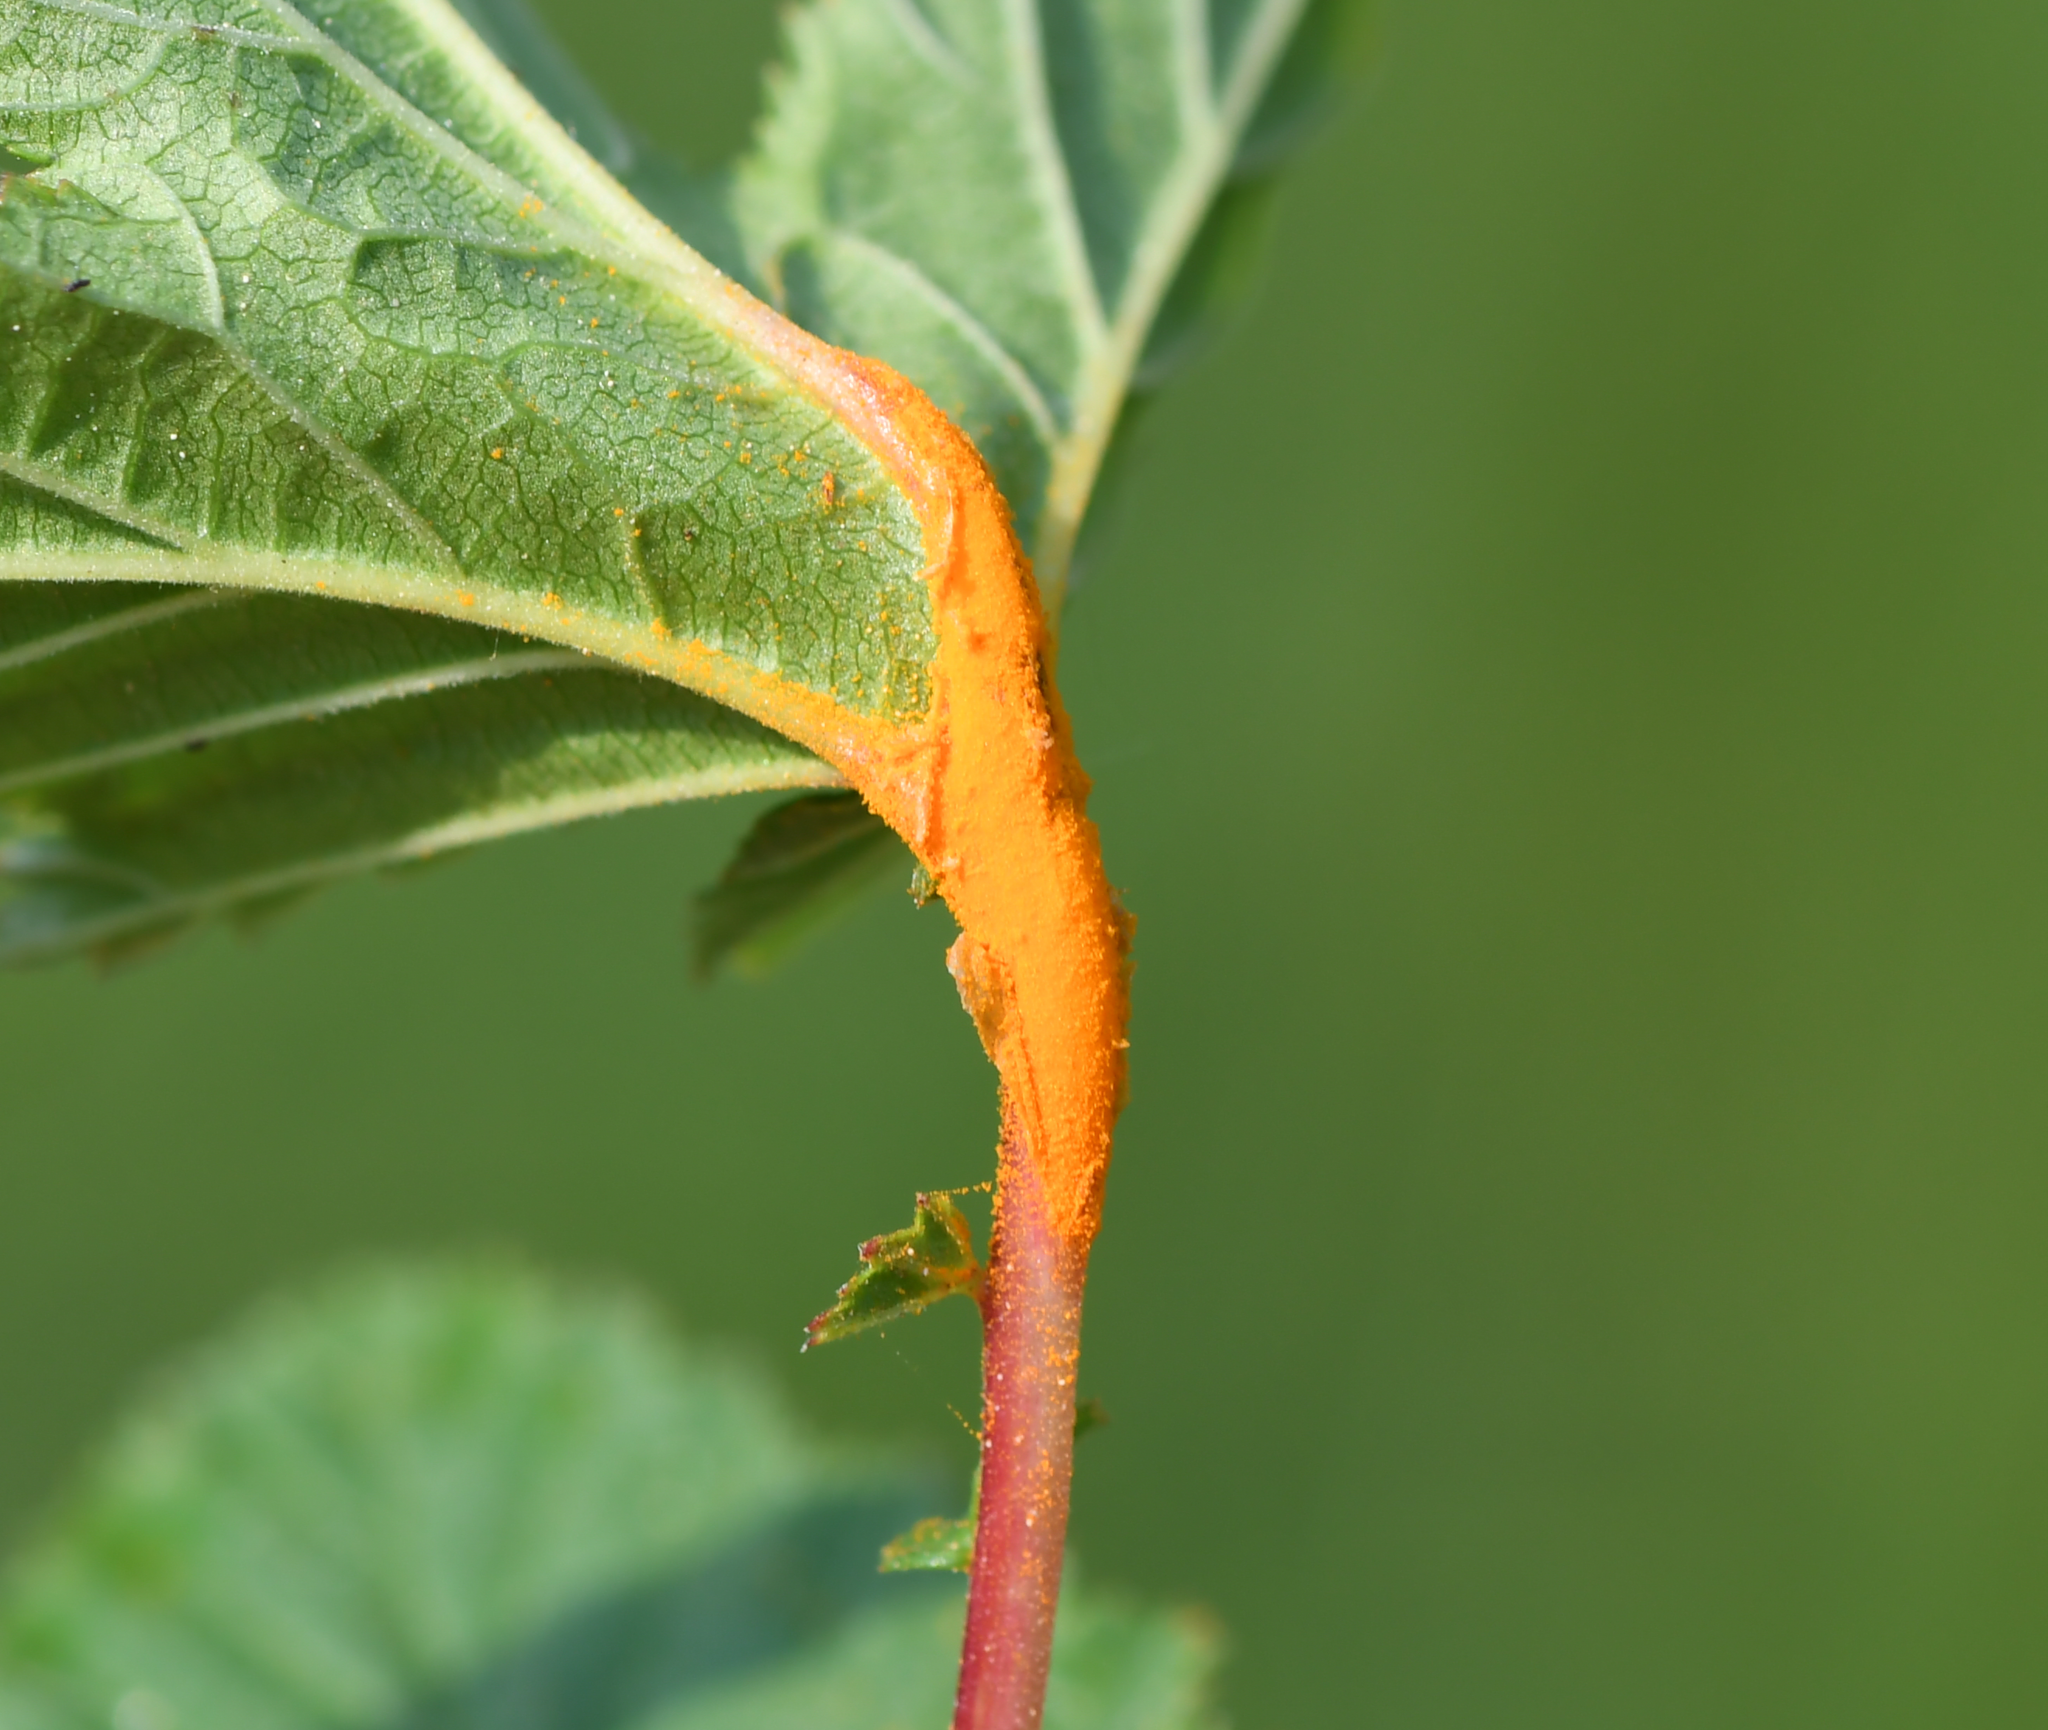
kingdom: Fungi
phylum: Basidiomycota
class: Pucciniomycetes
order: Pucciniales
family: Raveneliaceae
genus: Triphragmium
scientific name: Triphragmium ulmariae
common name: Meadowsweet rust
